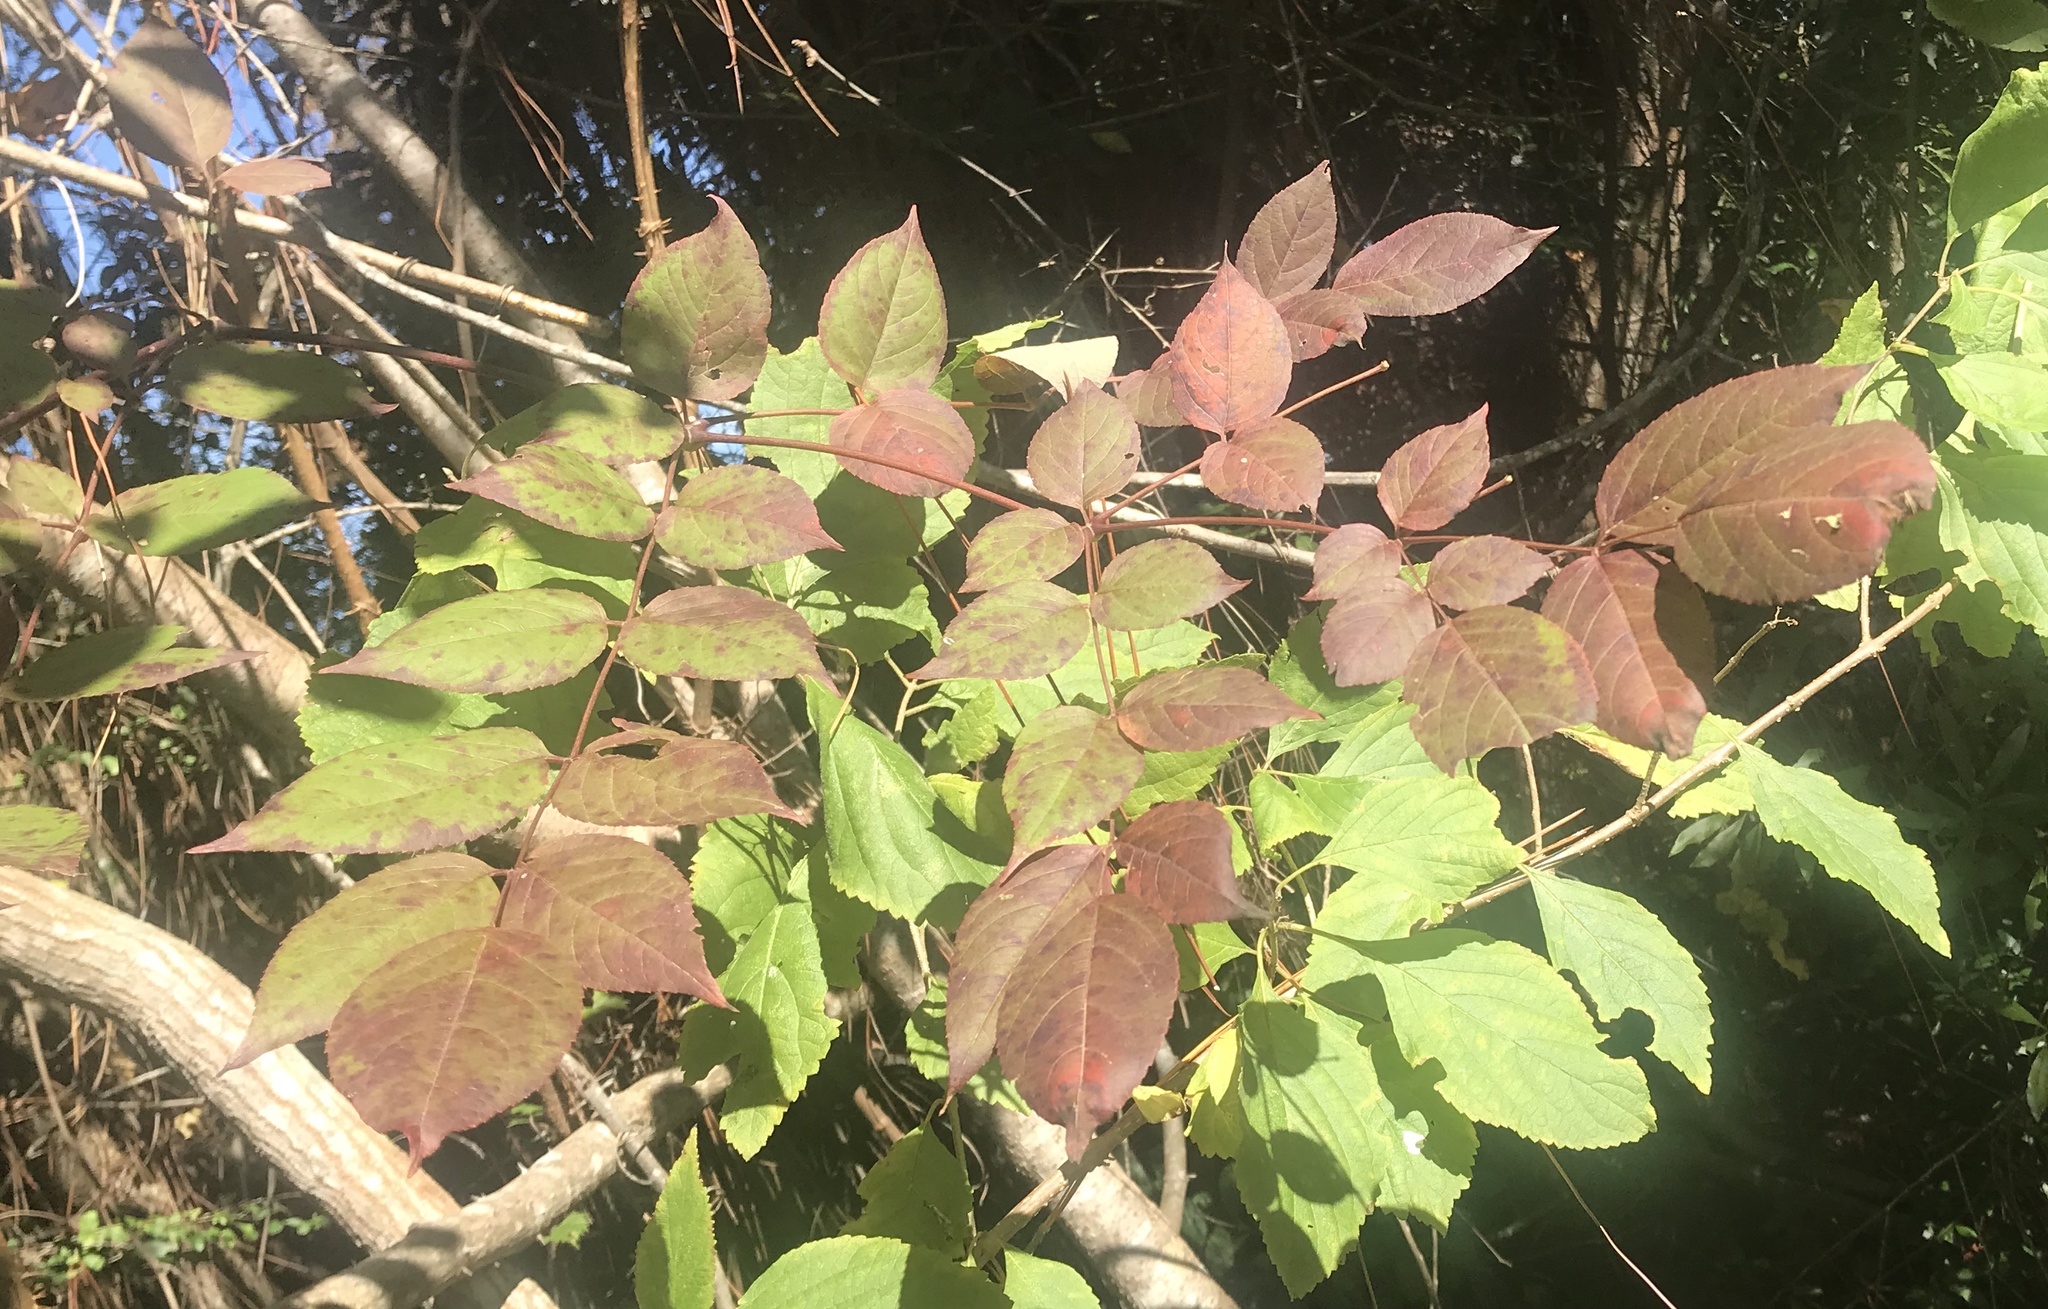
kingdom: Plantae
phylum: Tracheophyta
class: Magnoliopsida
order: Apiales
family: Araliaceae
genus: Aralia
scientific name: Aralia spinosa
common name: Hercules'-club
